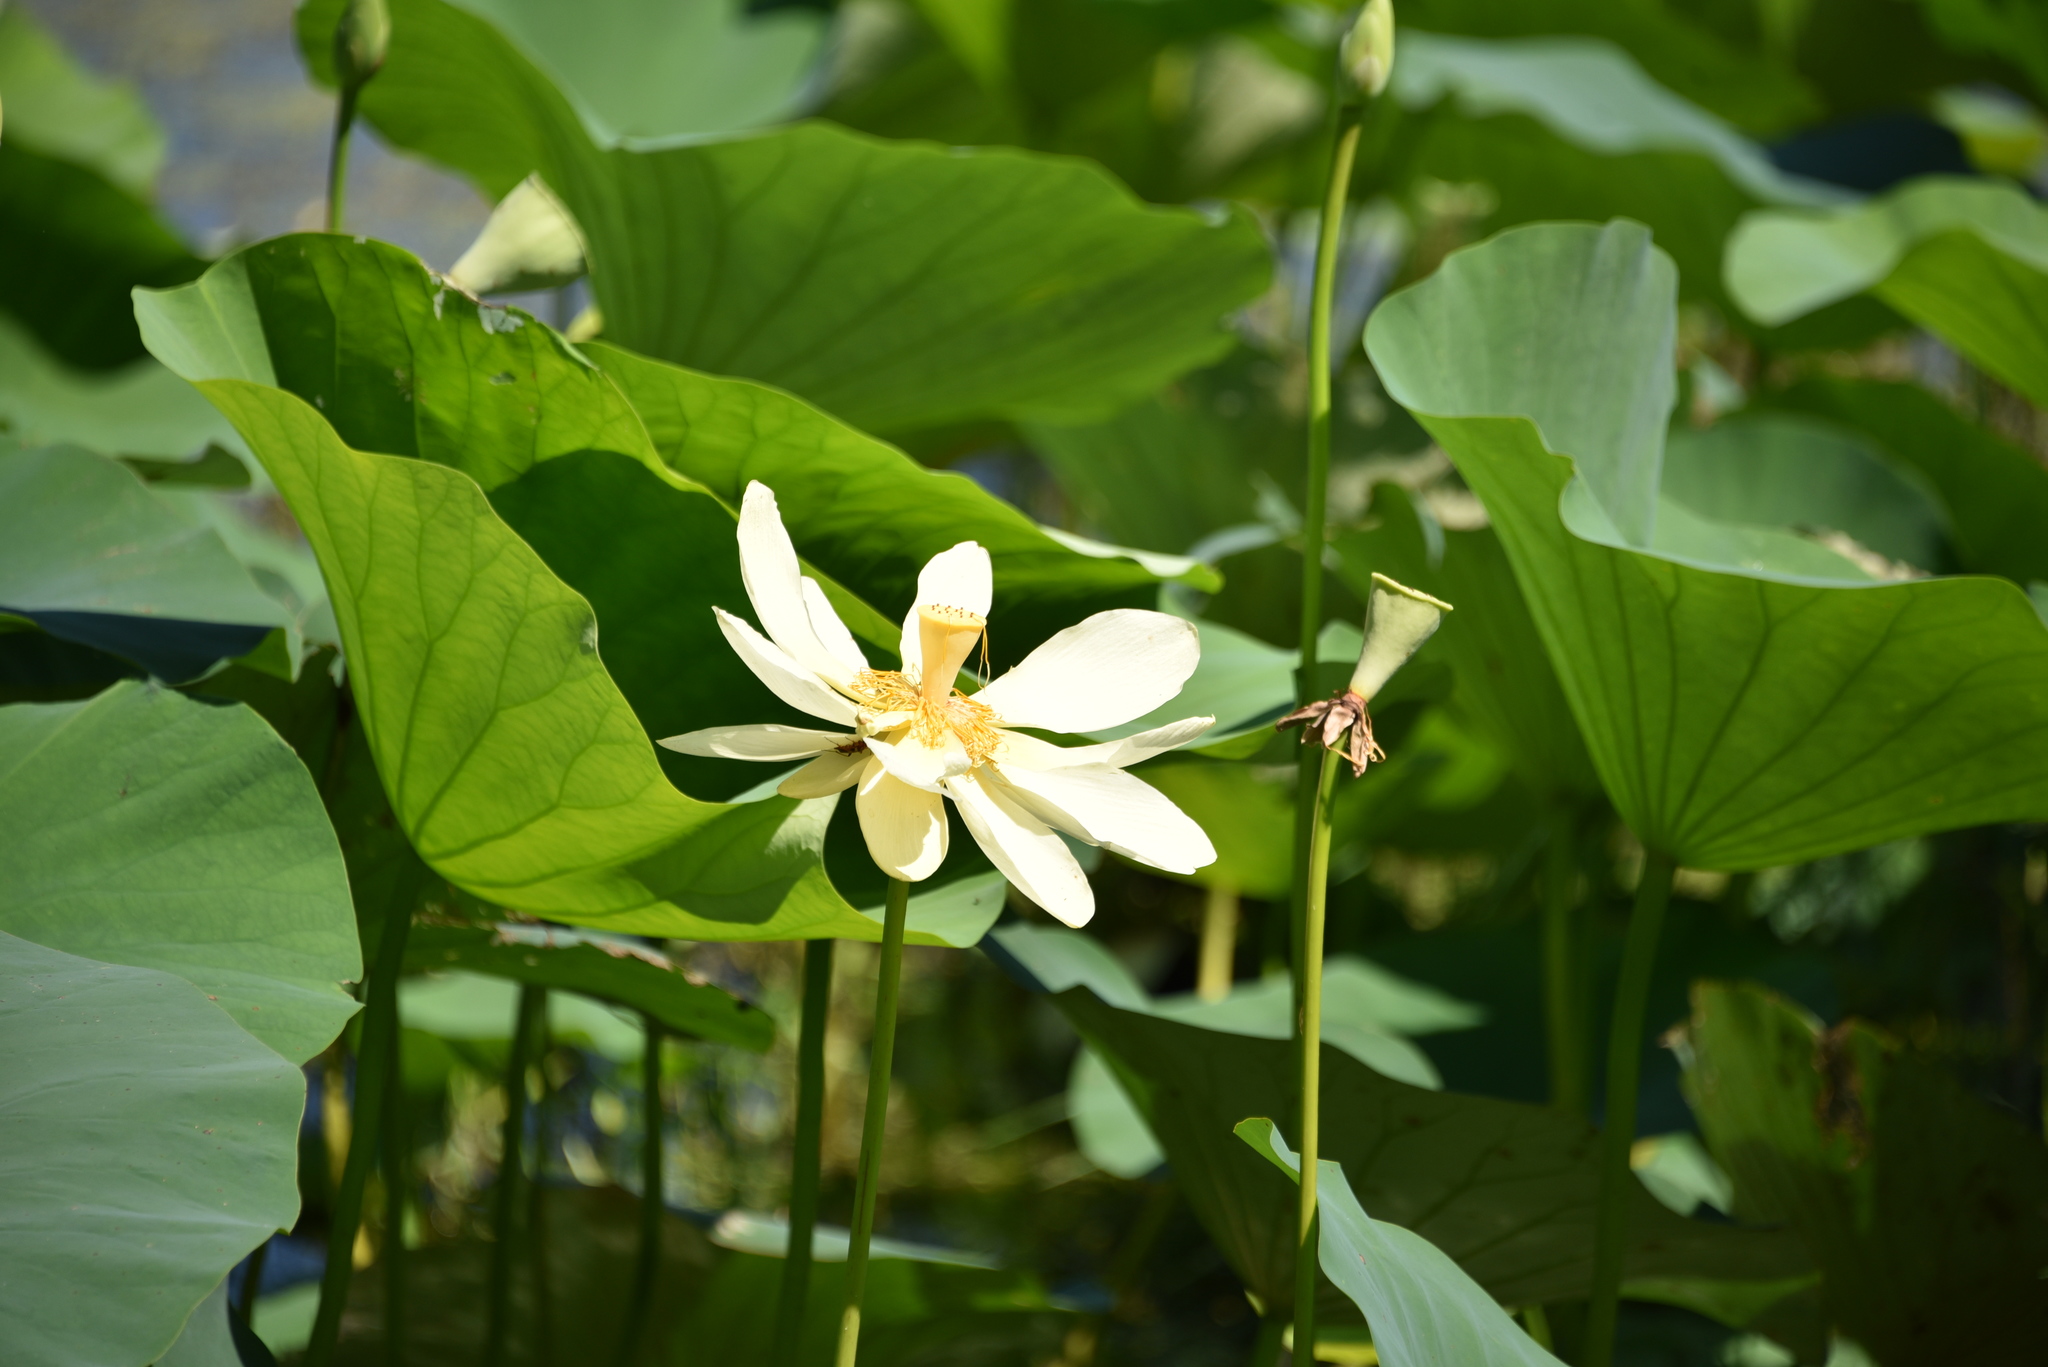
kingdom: Plantae
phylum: Tracheophyta
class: Magnoliopsida
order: Proteales
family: Nelumbonaceae
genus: Nelumbo
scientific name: Nelumbo lutea
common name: American lotus
